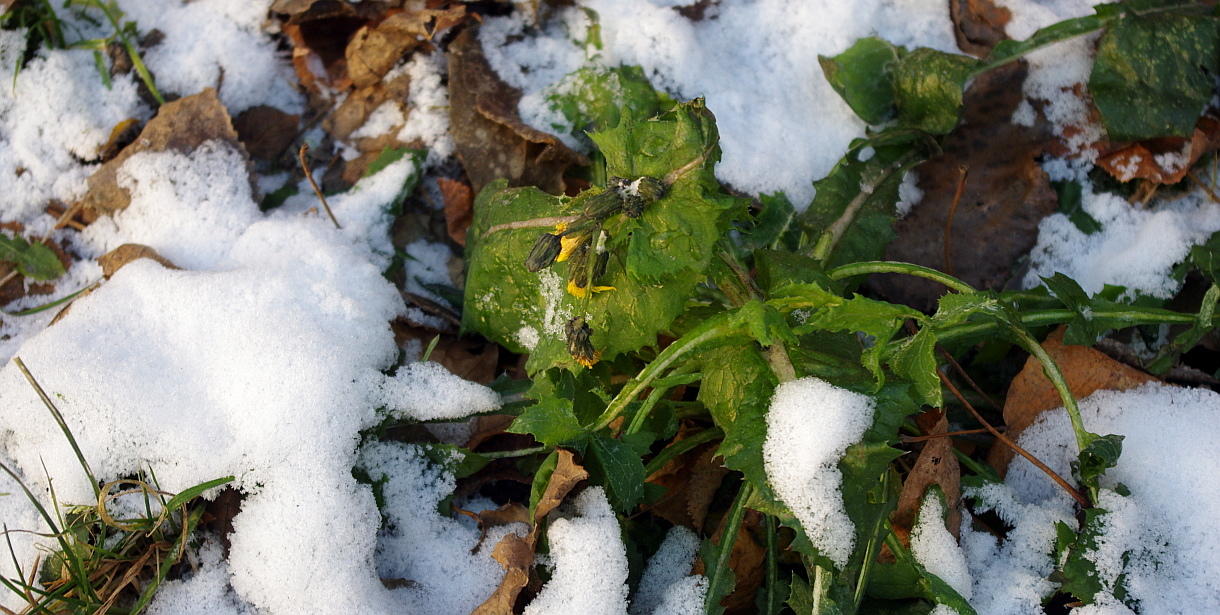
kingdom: Plantae
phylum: Tracheophyta
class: Magnoliopsida
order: Asterales
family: Asteraceae
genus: Sonchus
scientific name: Sonchus oleraceus
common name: Common sowthistle
